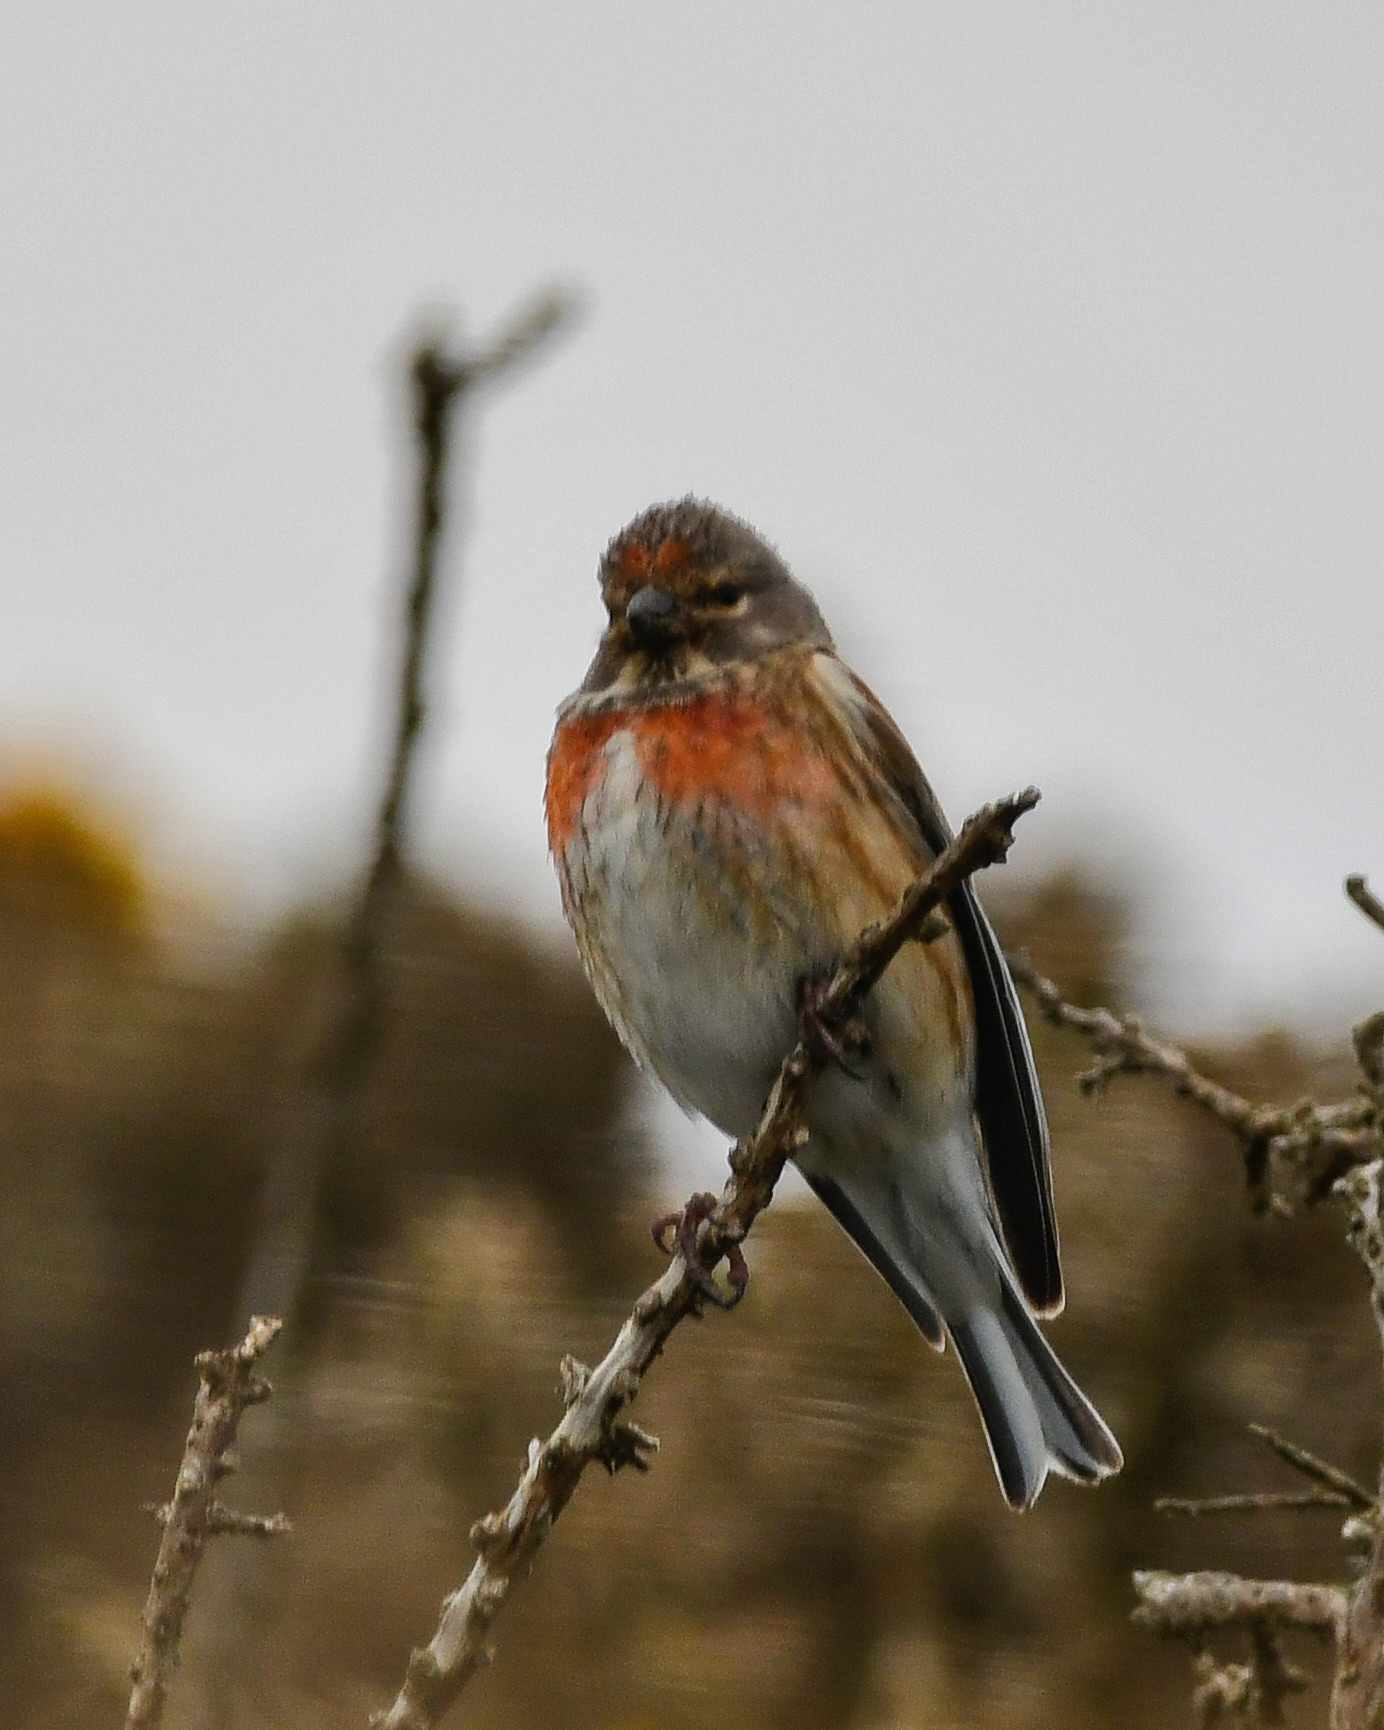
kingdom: Animalia
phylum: Chordata
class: Aves
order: Passeriformes
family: Fringillidae
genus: Linaria
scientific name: Linaria cannabina
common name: Common linnet
